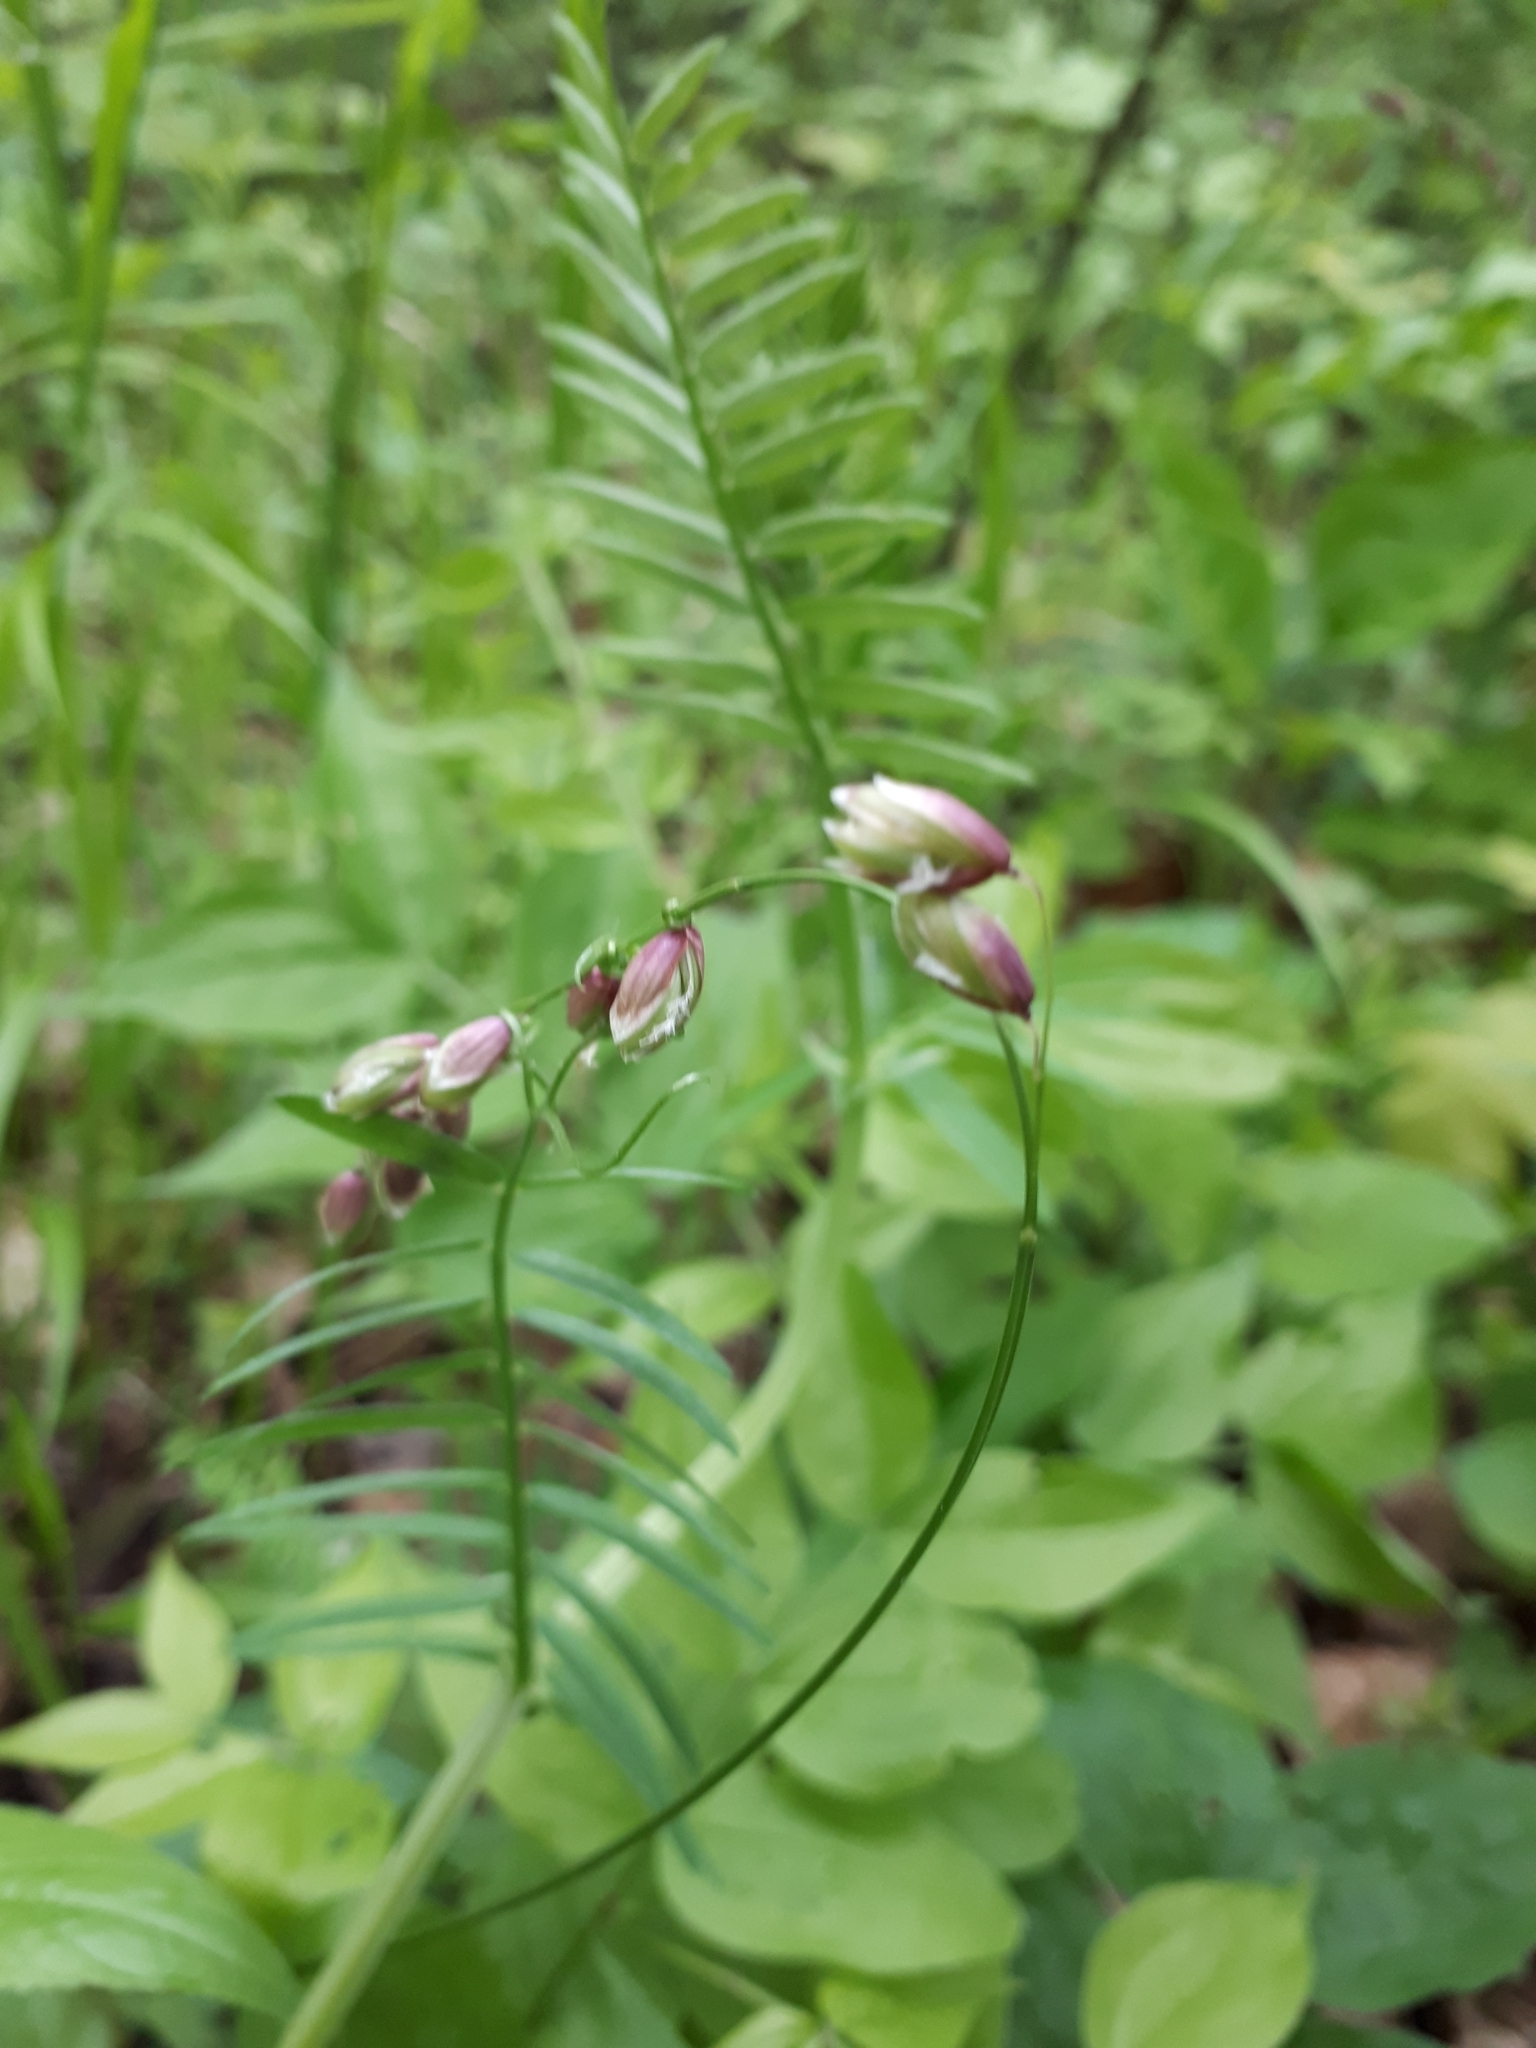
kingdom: Plantae
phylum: Tracheophyta
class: Liliopsida
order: Poales
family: Poaceae
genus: Melica
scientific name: Melica nutans
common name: Mountain melick
